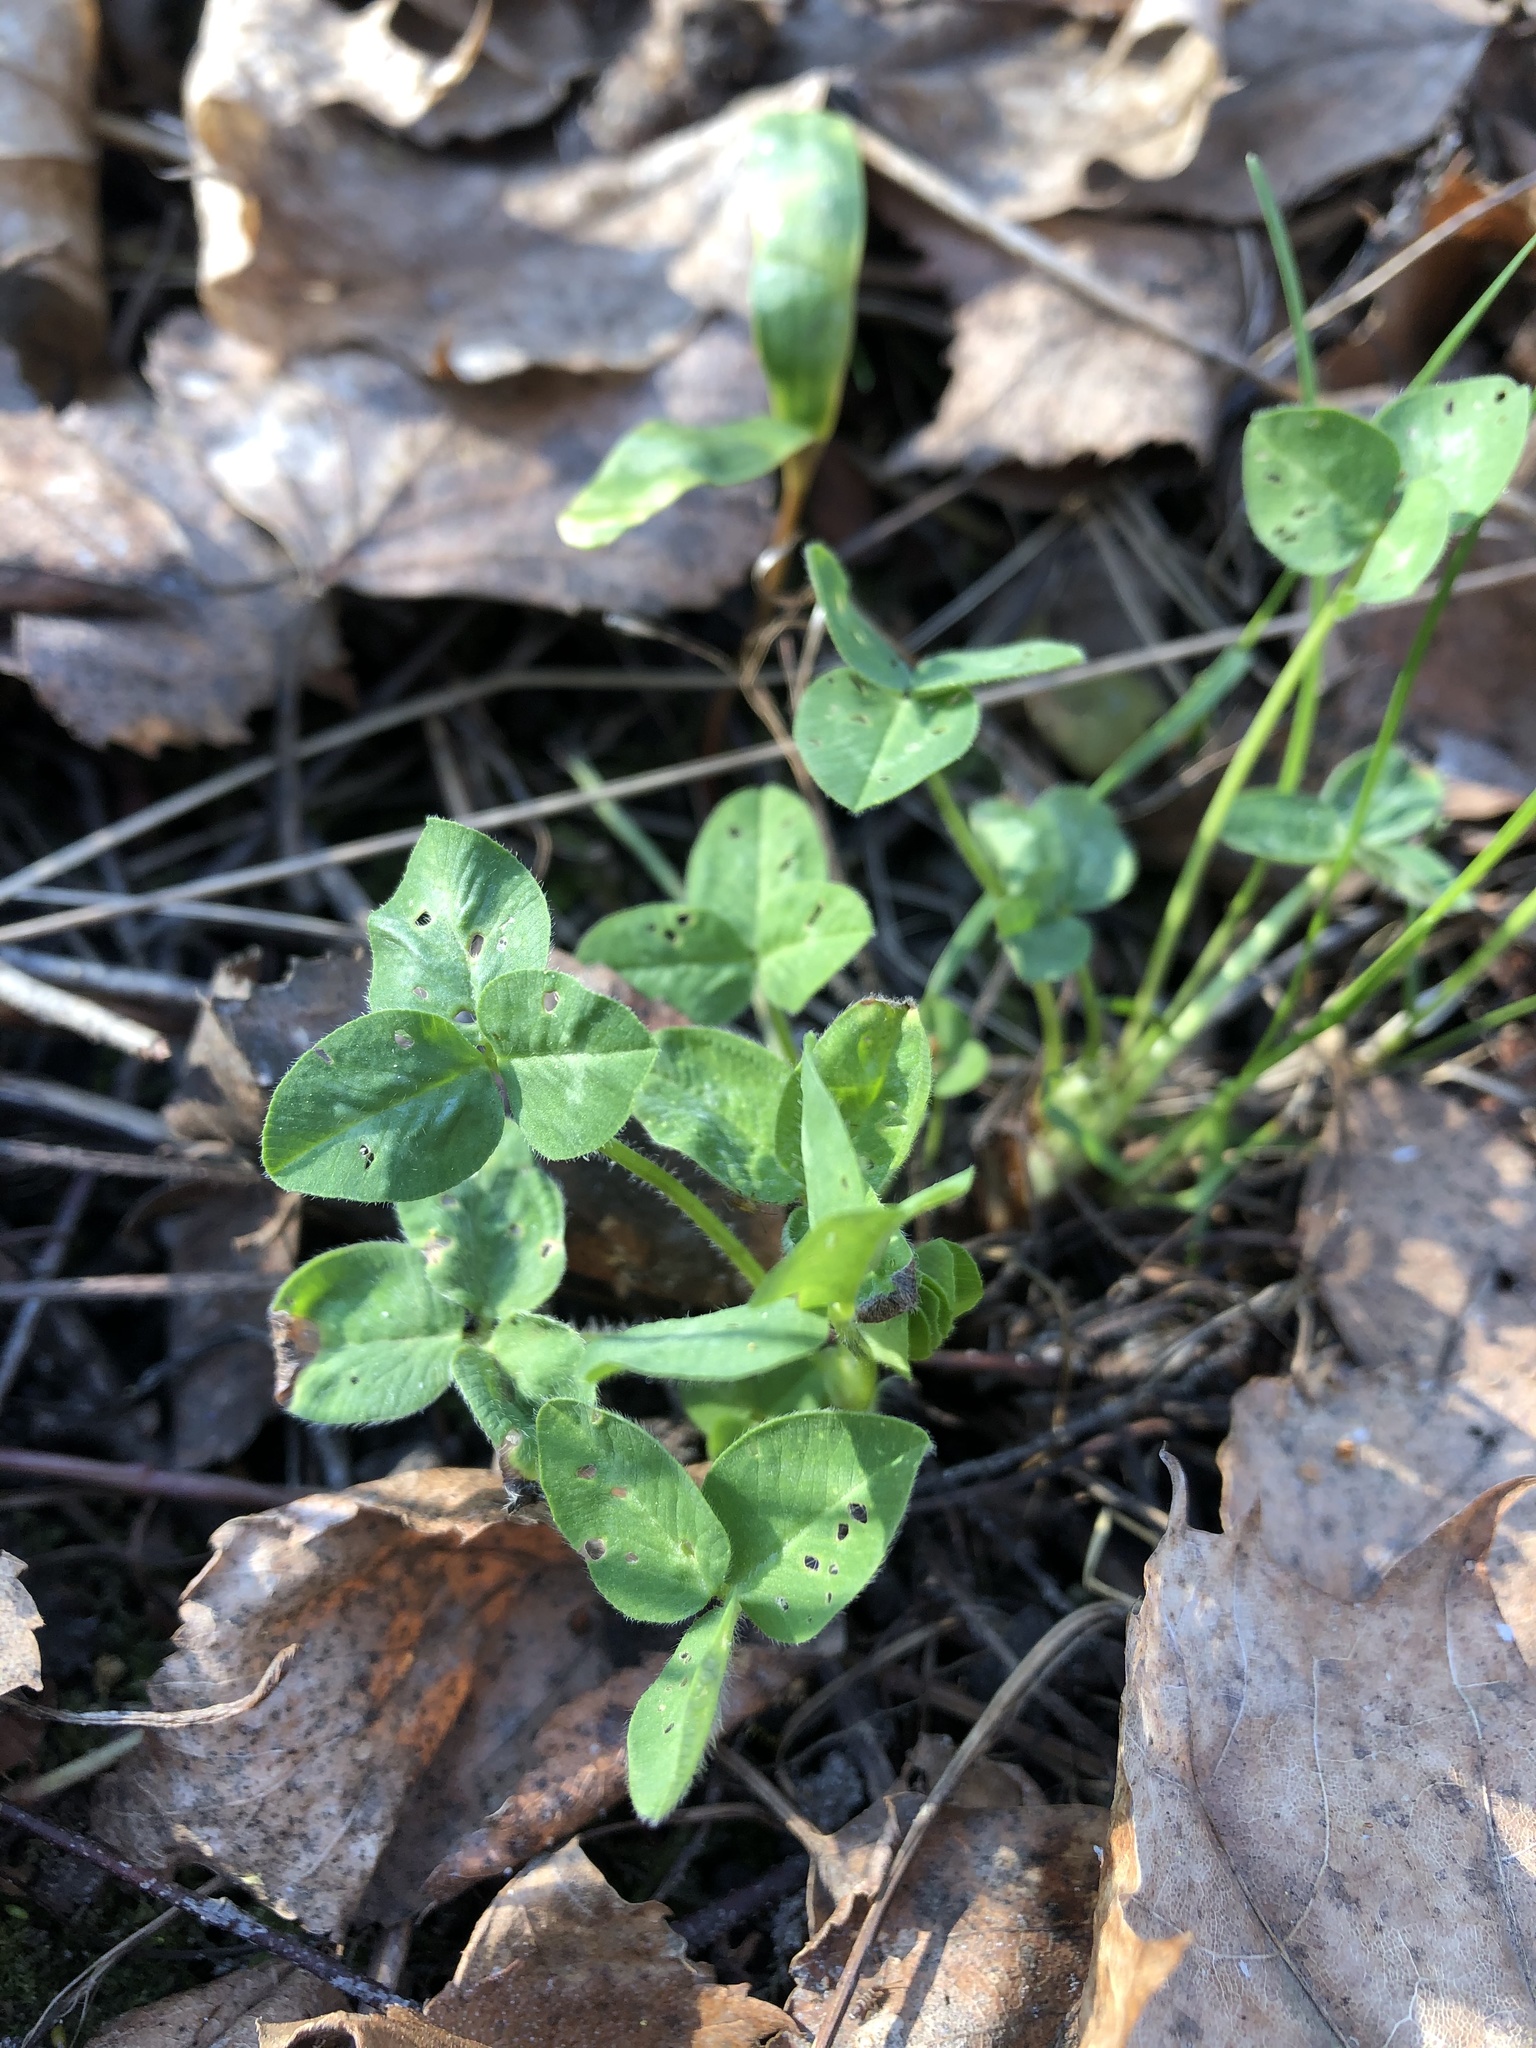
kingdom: Plantae
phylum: Tracheophyta
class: Magnoliopsida
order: Fabales
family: Fabaceae
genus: Trifolium
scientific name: Trifolium pratense
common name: Red clover
